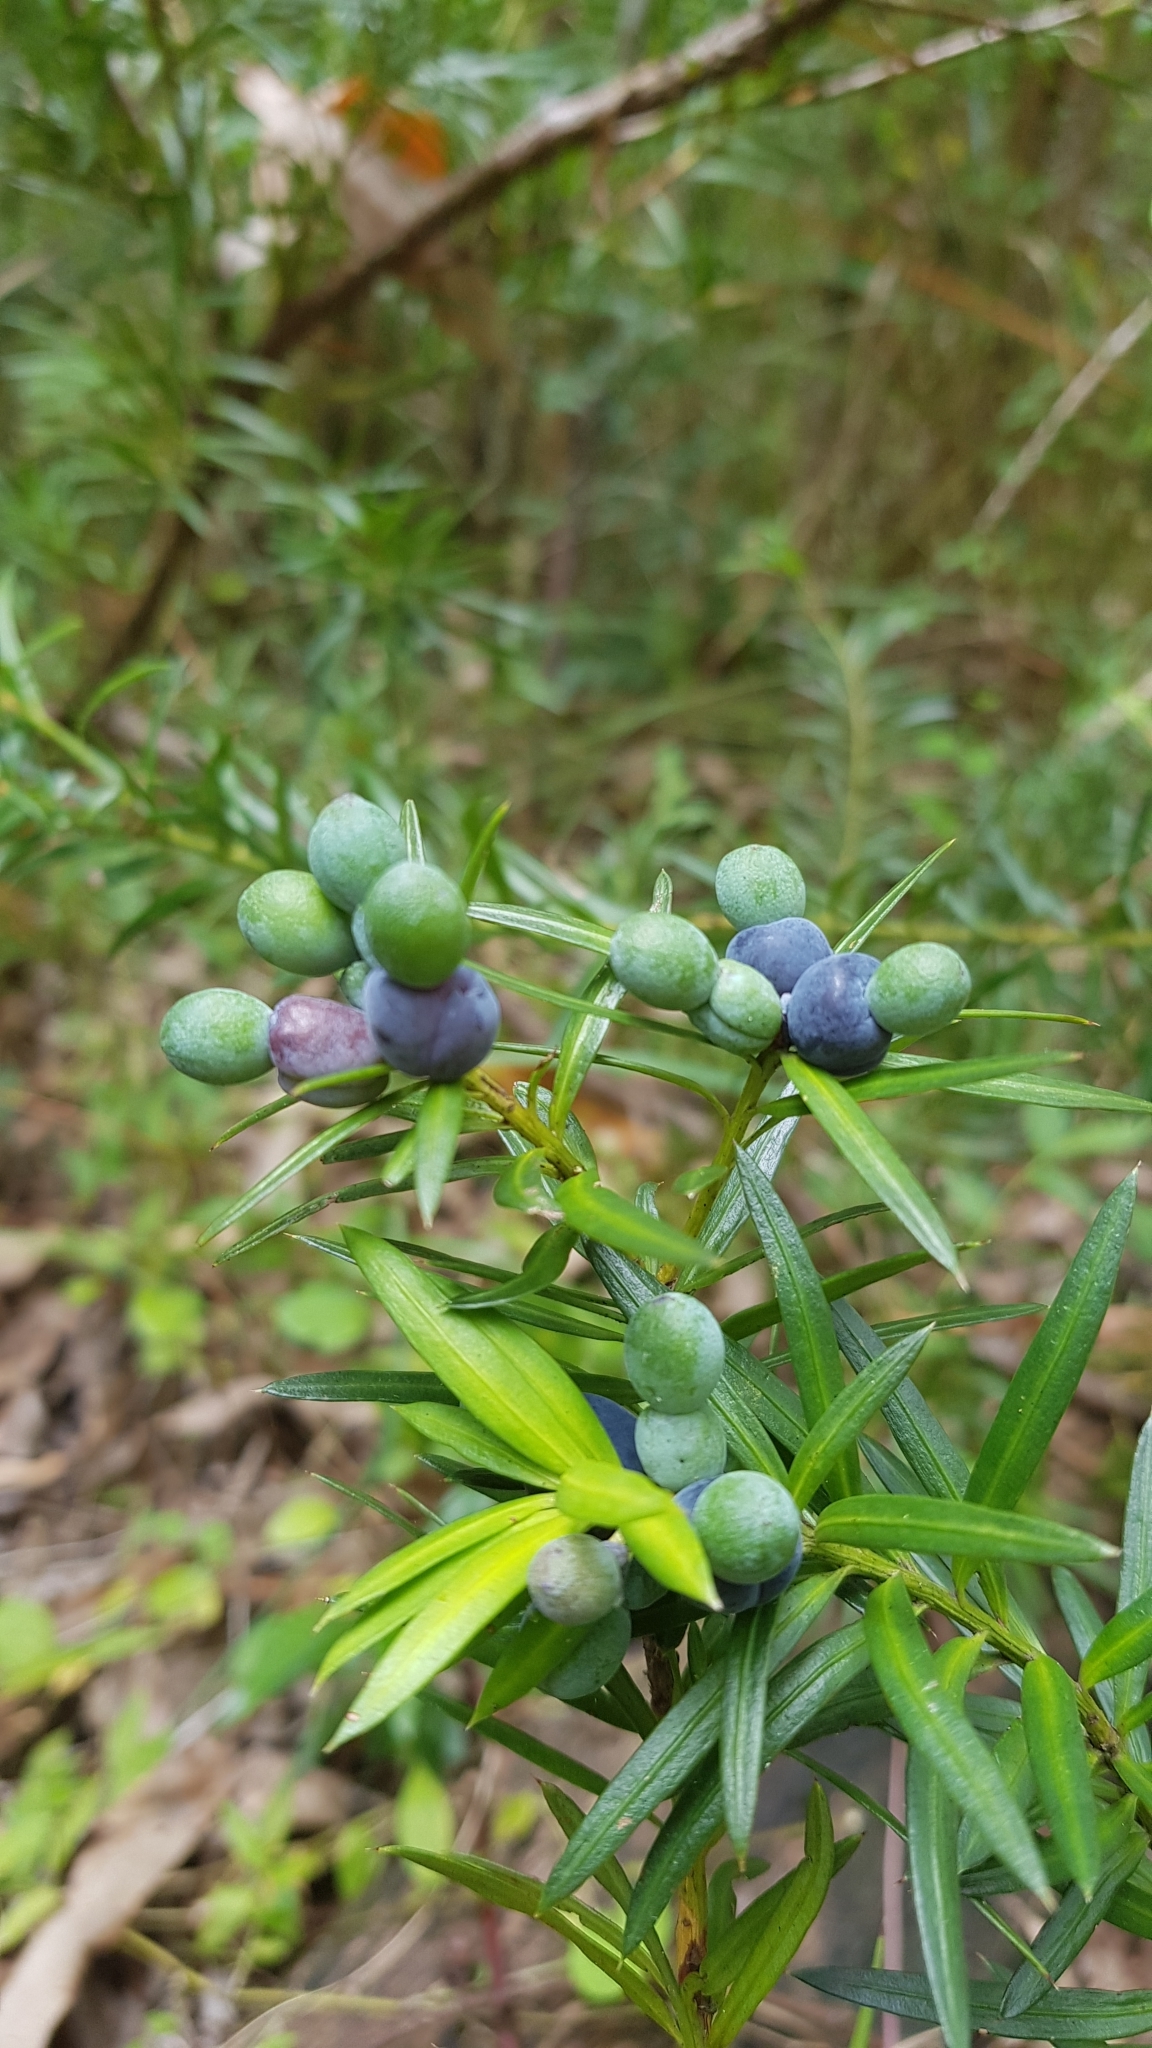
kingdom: Plantae
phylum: Tracheophyta
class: Pinopsida
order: Pinales
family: Podocarpaceae
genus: Podocarpus
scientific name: Podocarpus spinulosus
